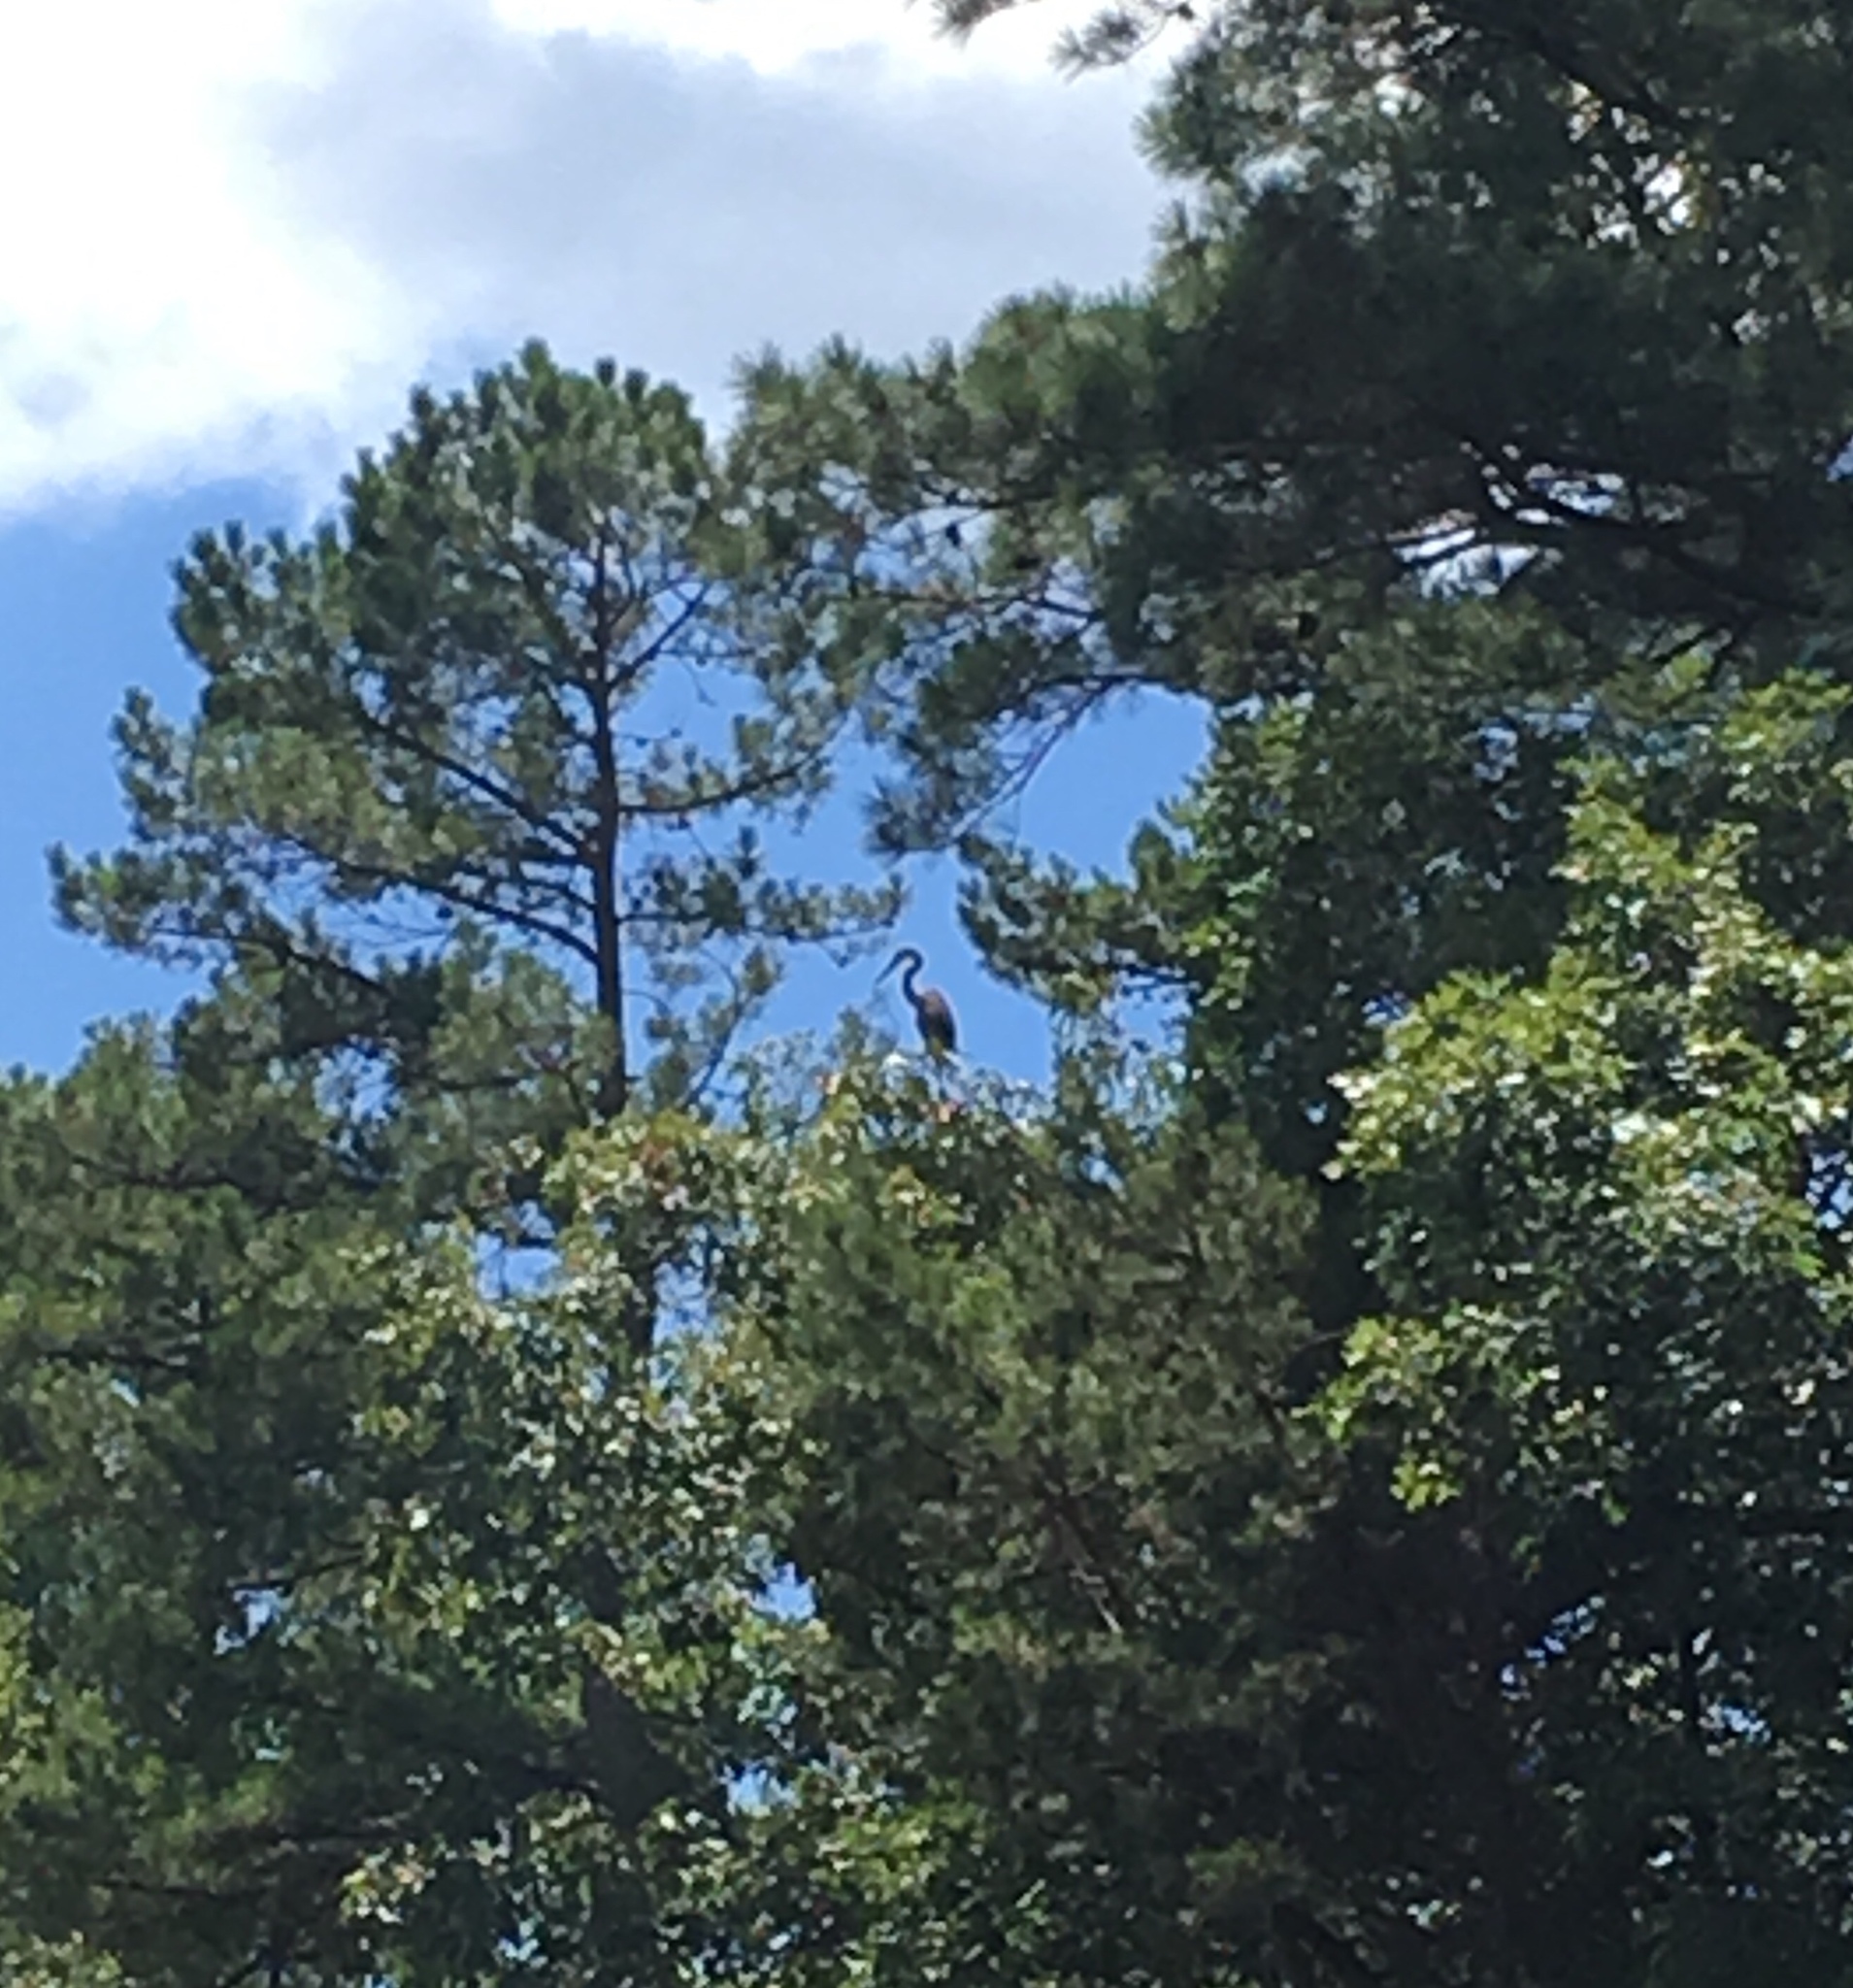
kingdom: Animalia
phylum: Chordata
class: Aves
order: Pelecaniformes
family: Ardeidae
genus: Ardea
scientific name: Ardea herodias
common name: Great blue heron
